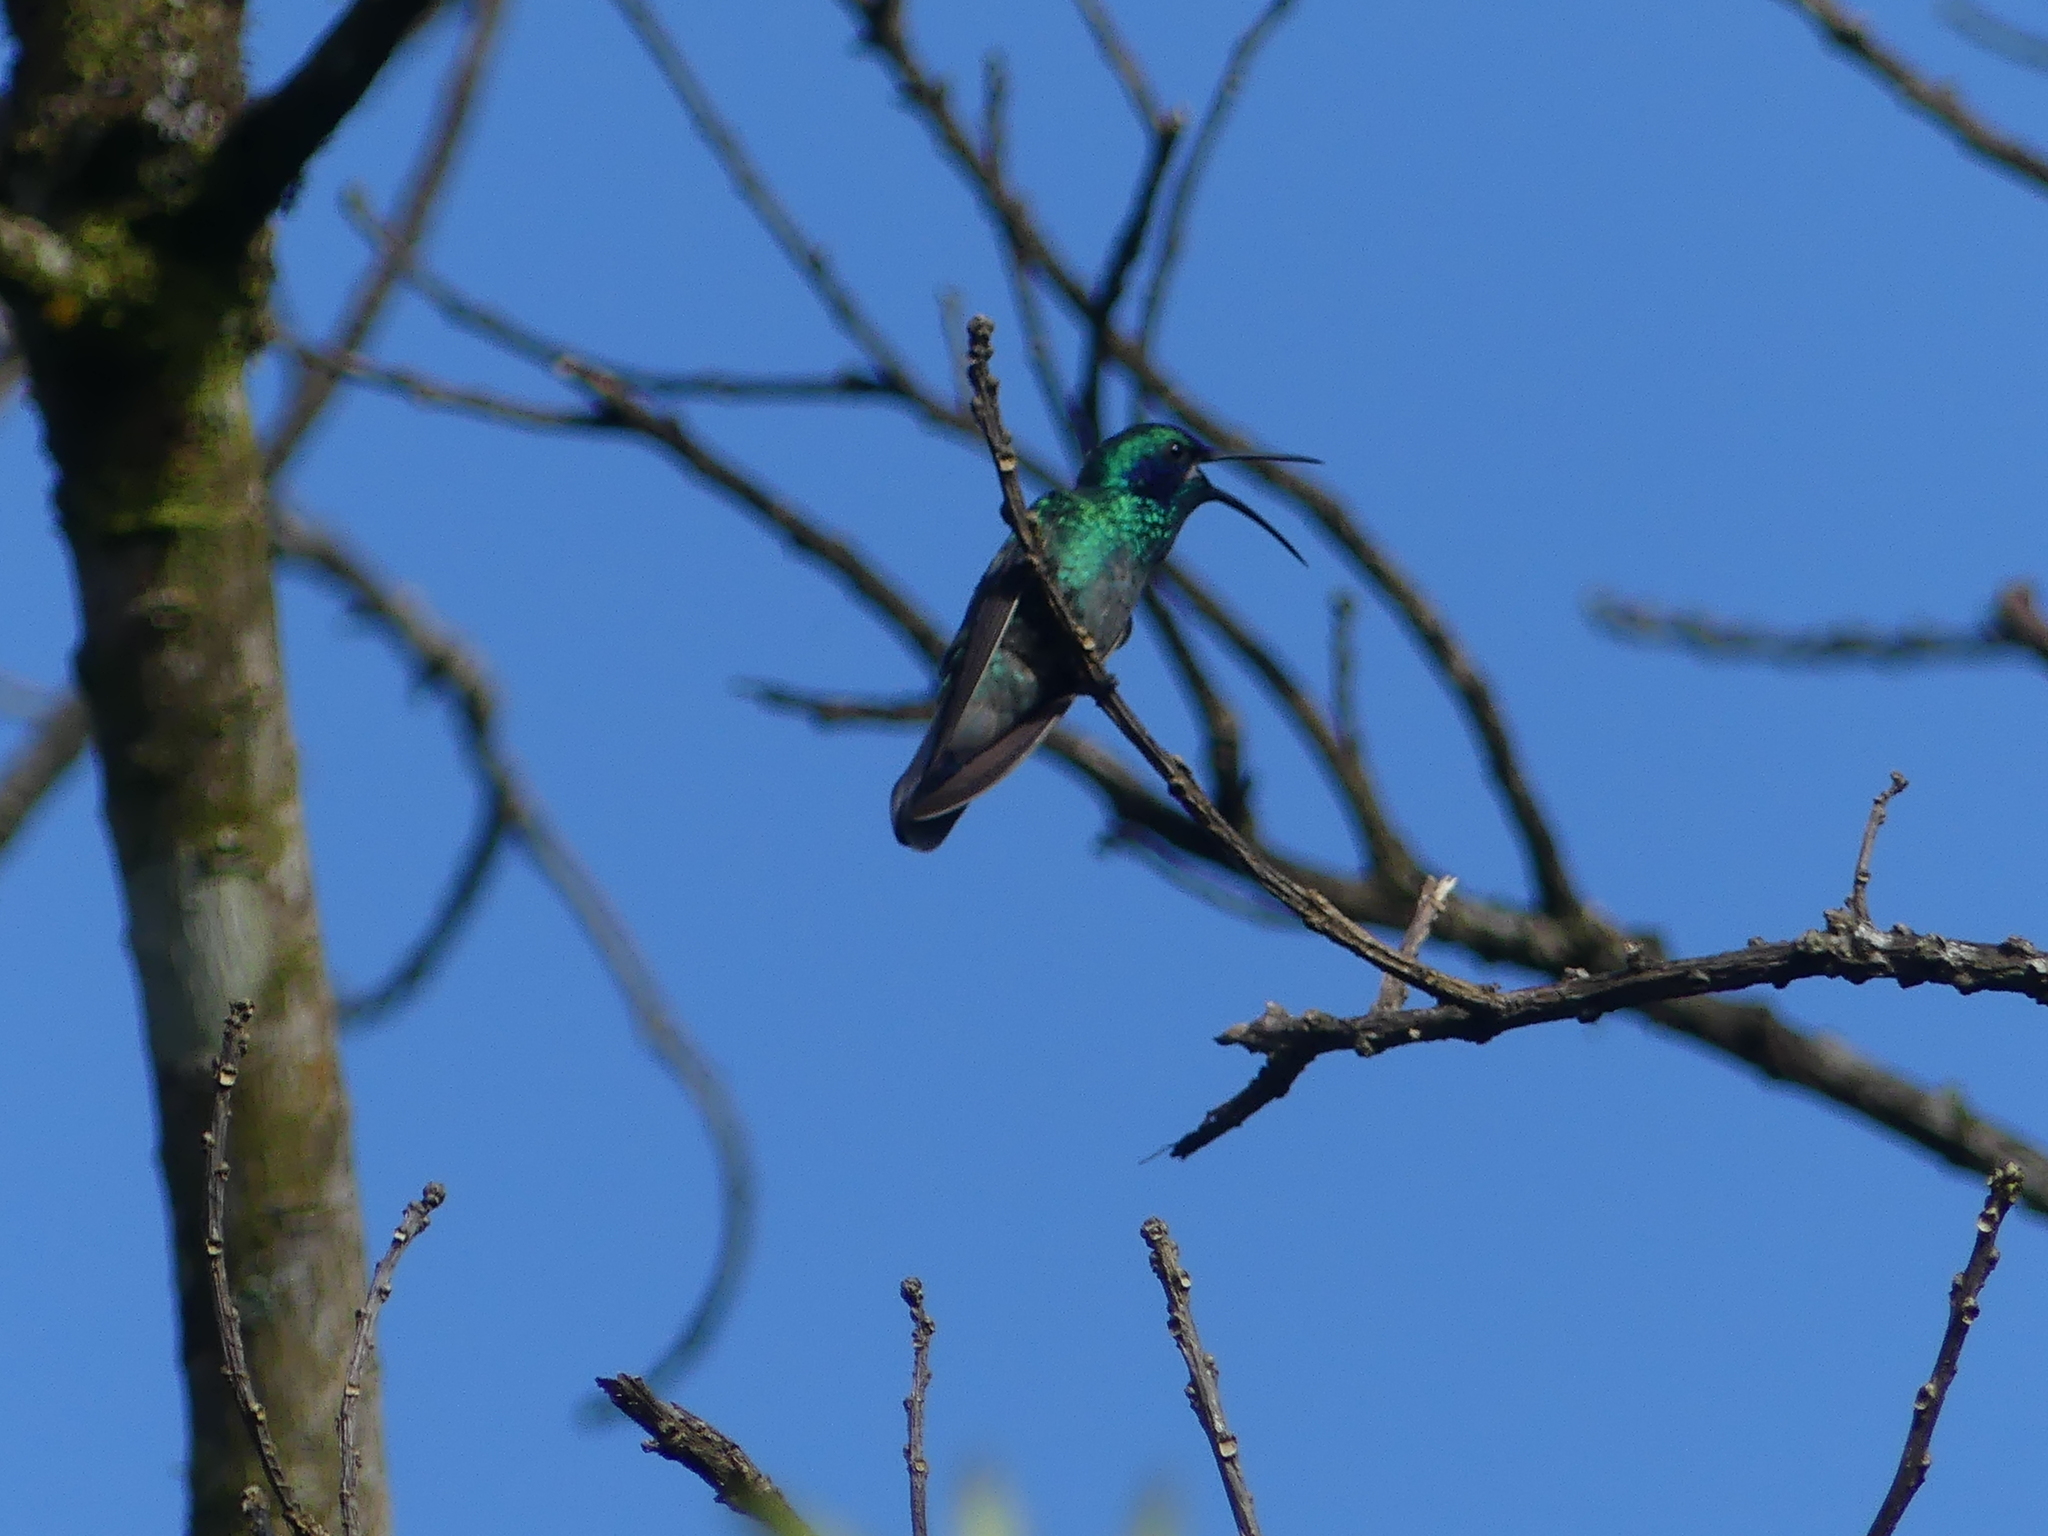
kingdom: Animalia
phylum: Chordata
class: Aves
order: Apodiformes
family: Trochilidae
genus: Colibri
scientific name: Colibri cyanotus
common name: Lesser violetear
